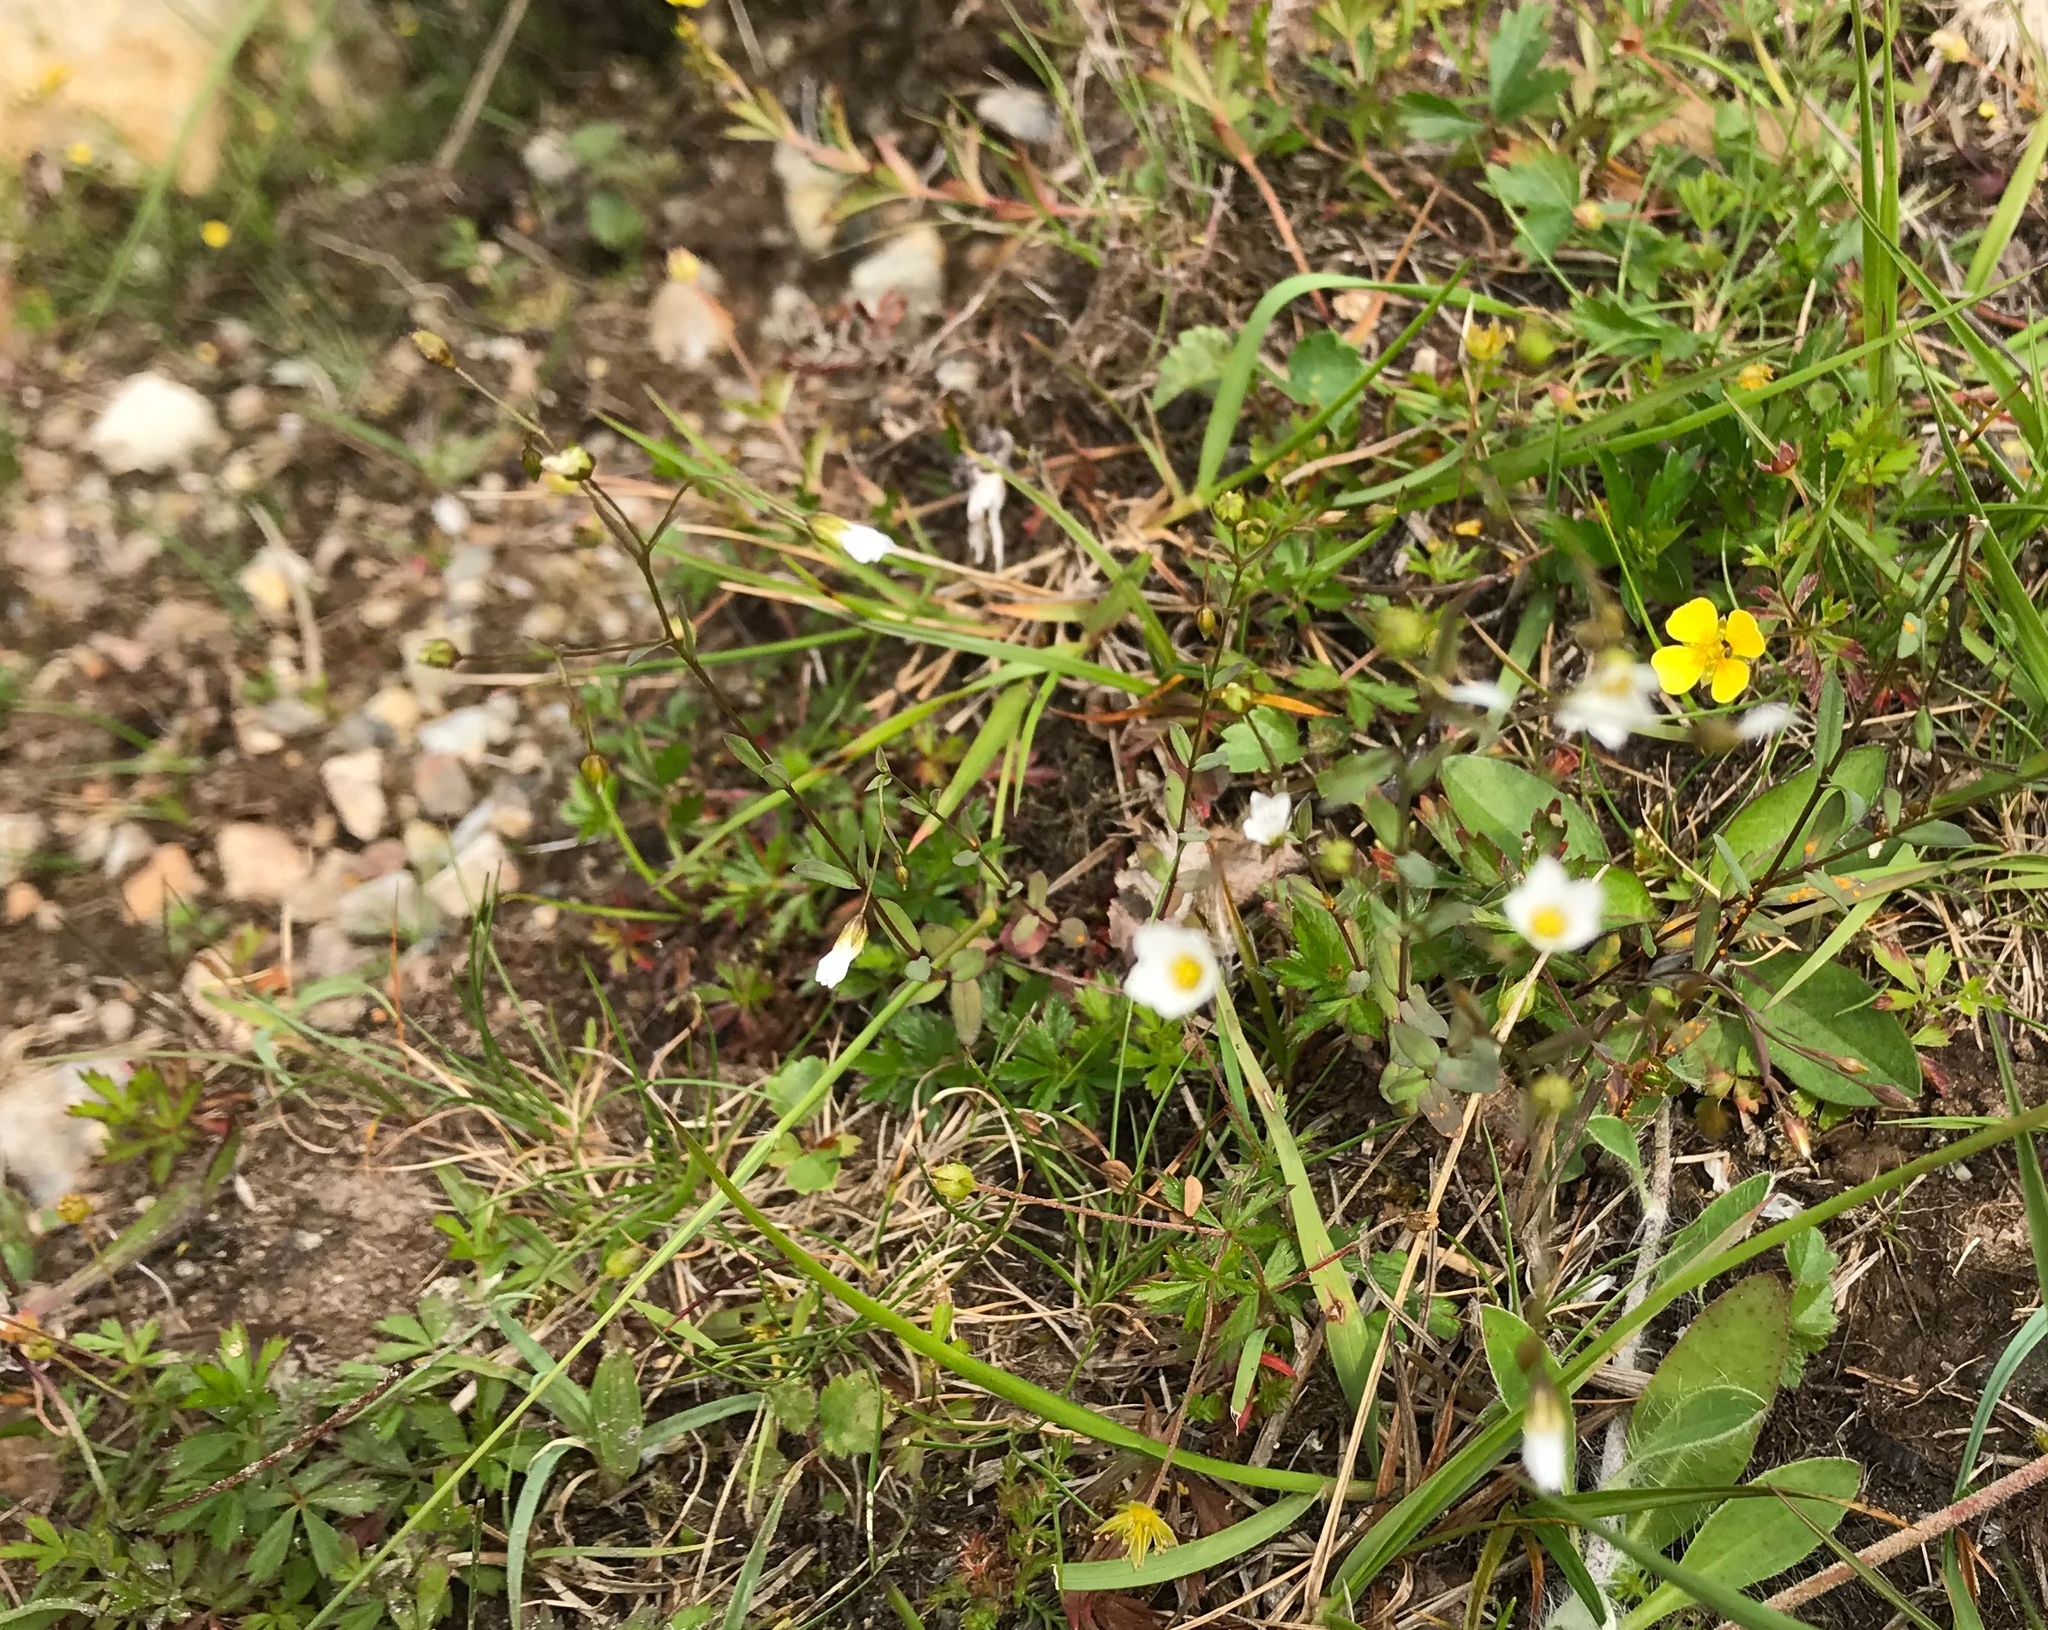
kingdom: Plantae
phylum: Tracheophyta
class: Magnoliopsida
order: Malpighiales
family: Linaceae
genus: Linum
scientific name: Linum catharticum
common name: Fairy flax
